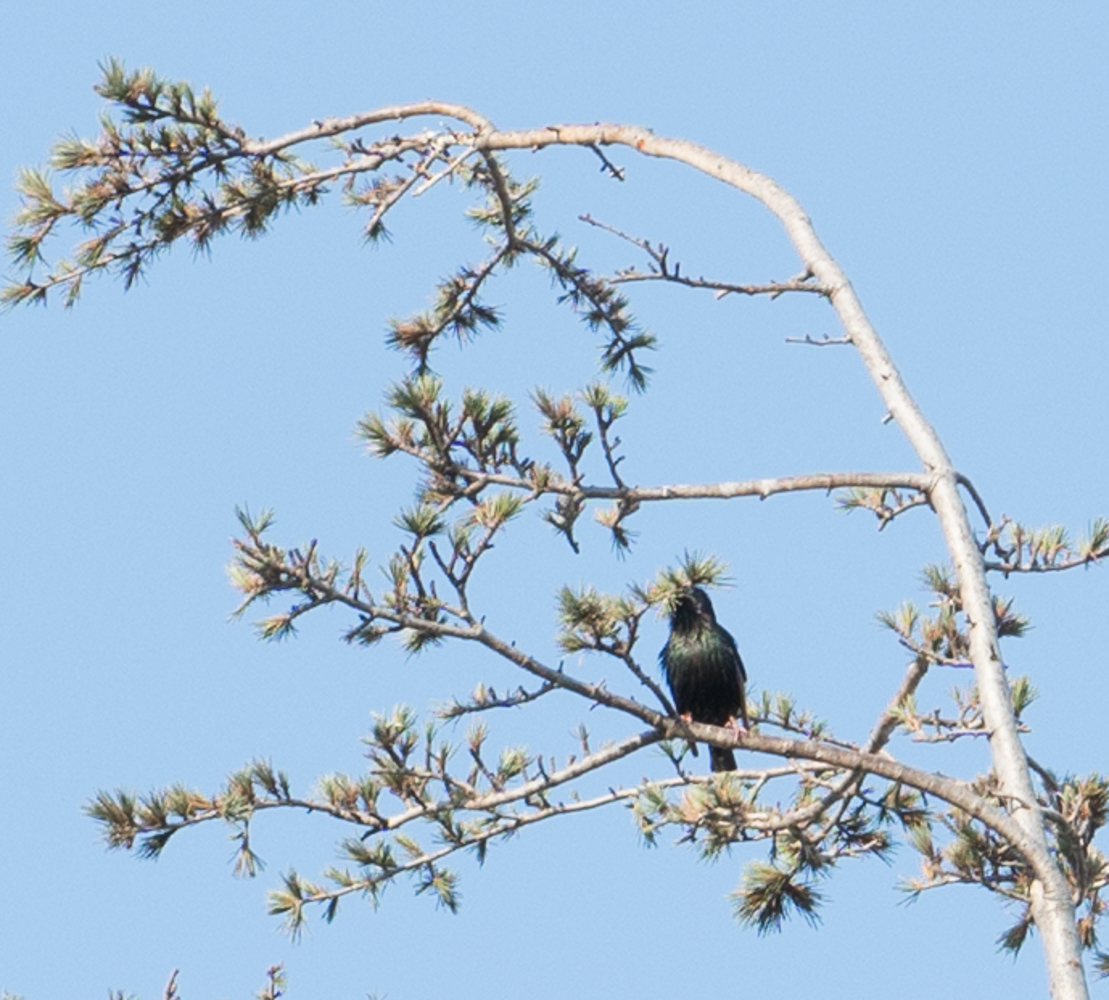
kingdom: Animalia
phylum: Chordata
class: Aves
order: Passeriformes
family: Sturnidae
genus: Sturnus
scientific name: Sturnus vulgaris
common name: Common starling
